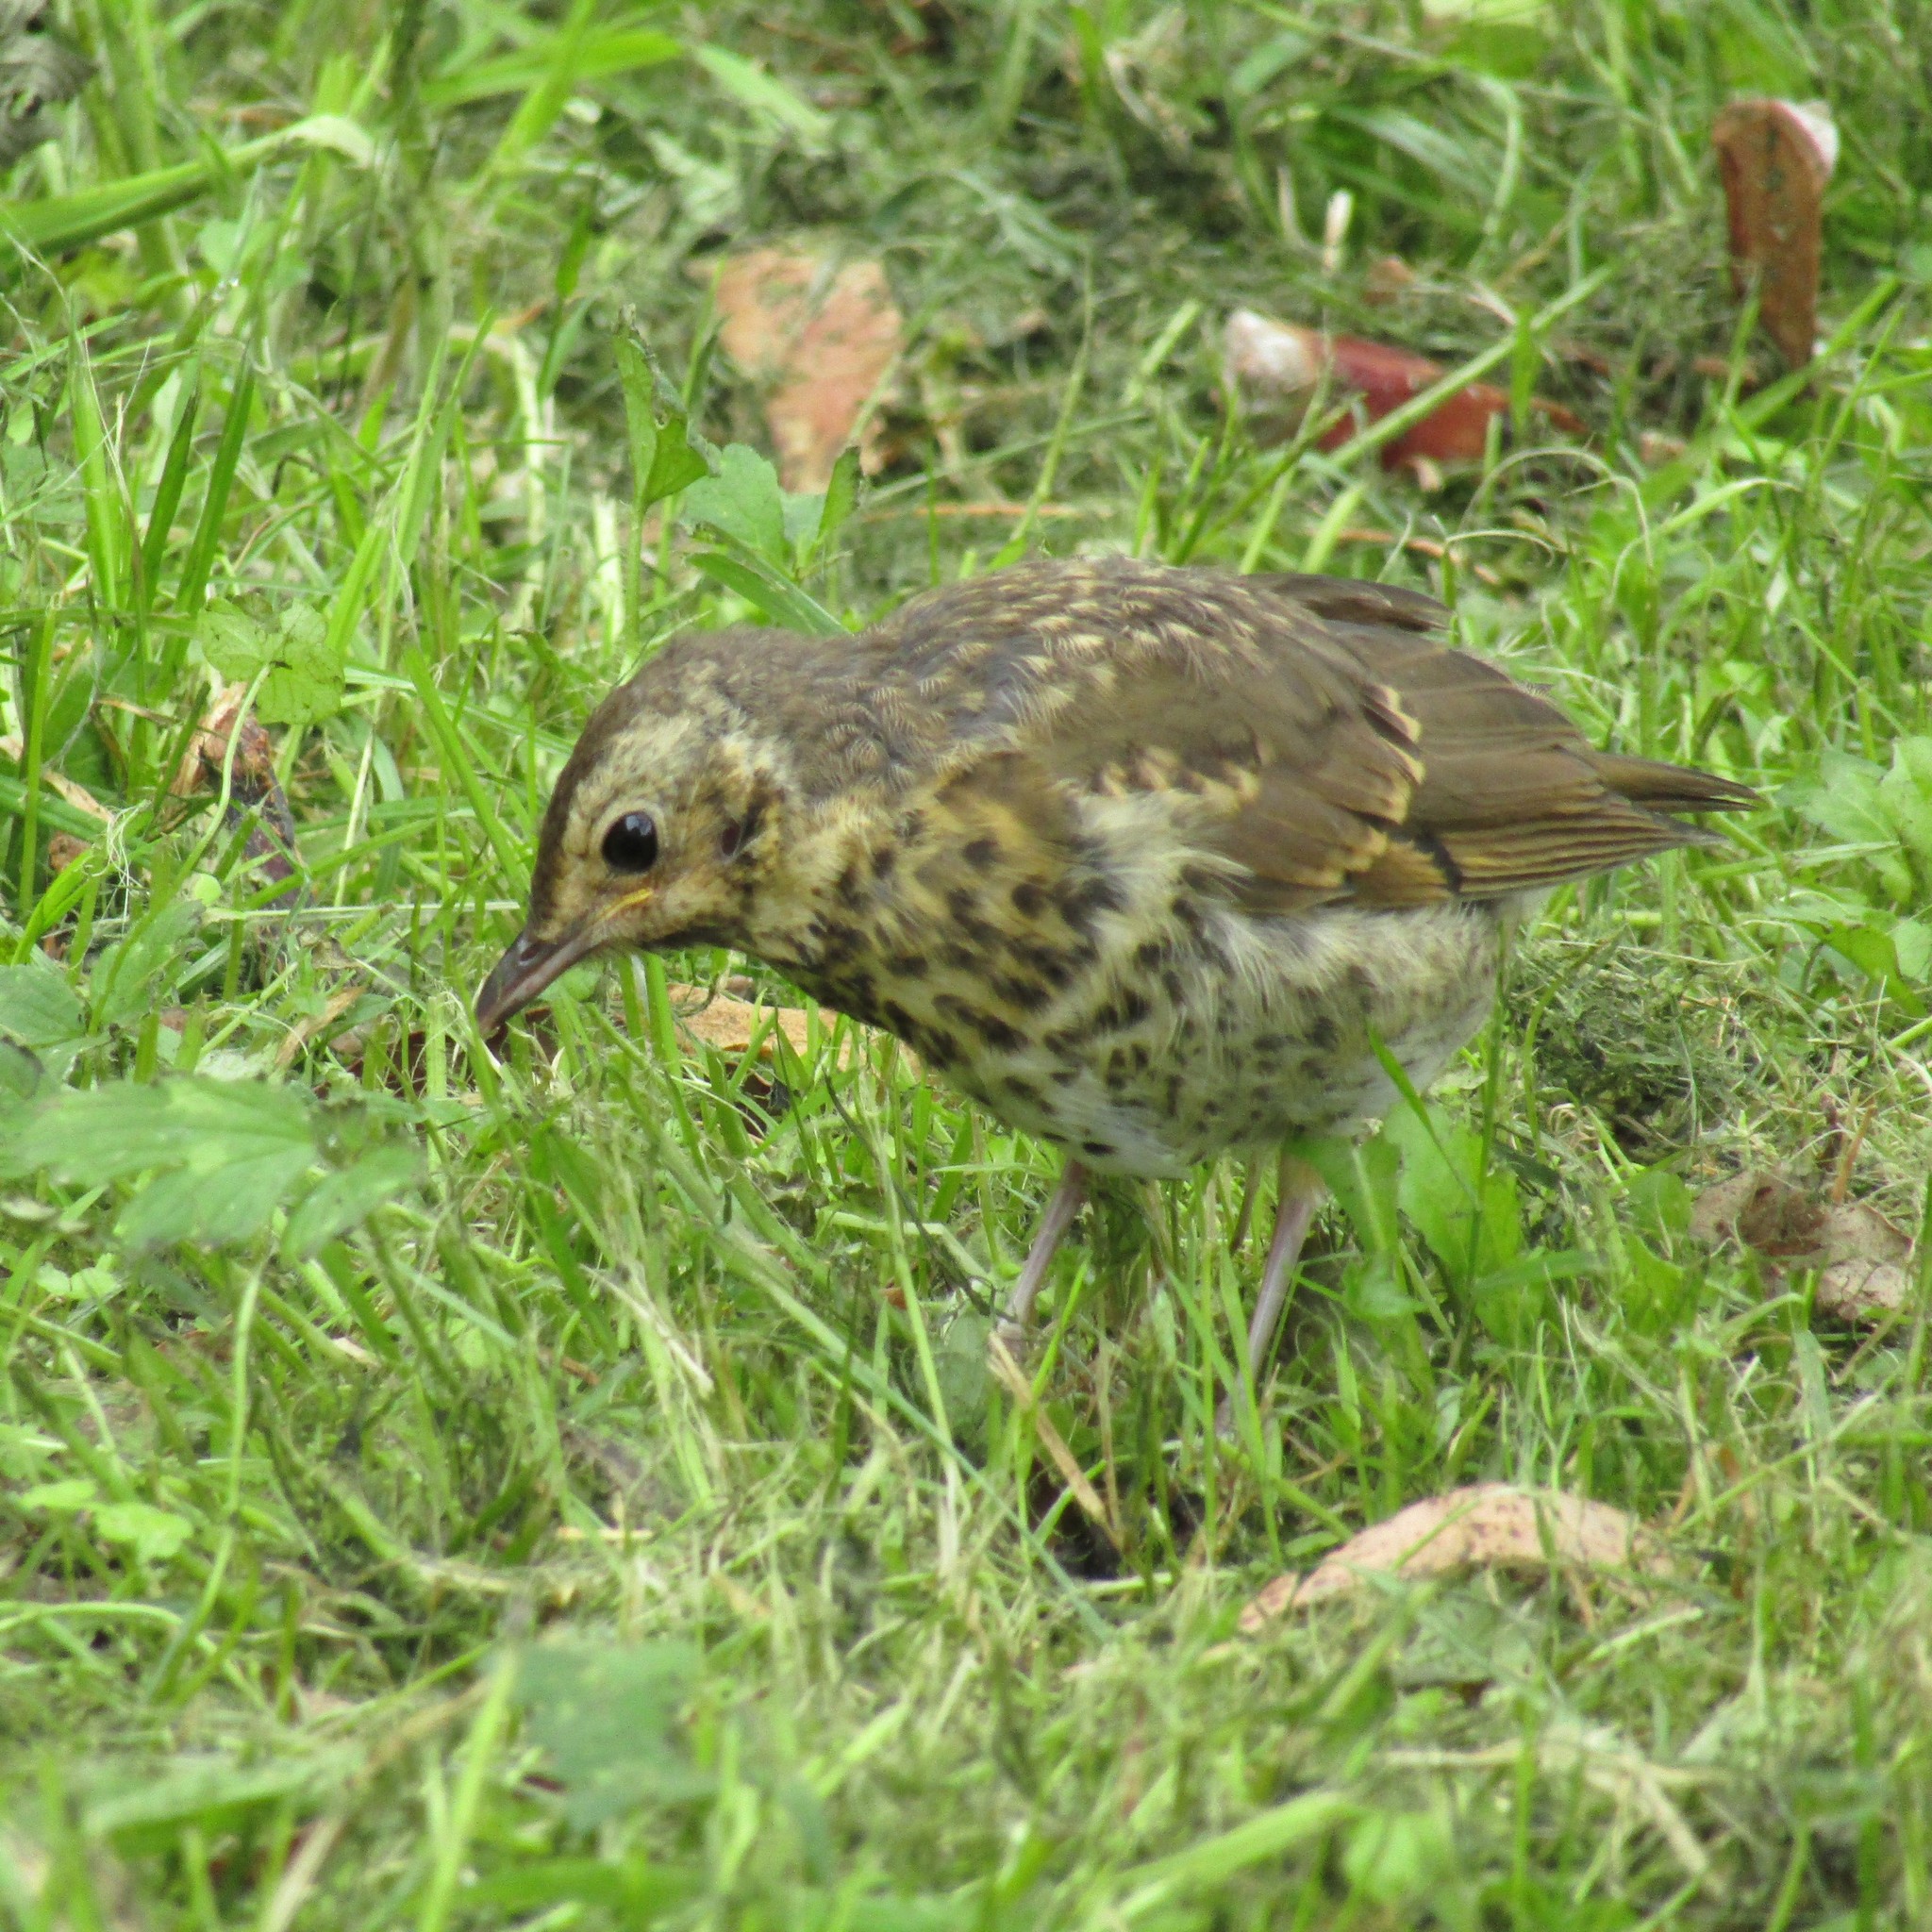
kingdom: Animalia
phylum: Chordata
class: Aves
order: Passeriformes
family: Turdidae
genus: Turdus
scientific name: Turdus philomelos
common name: Song thrush
